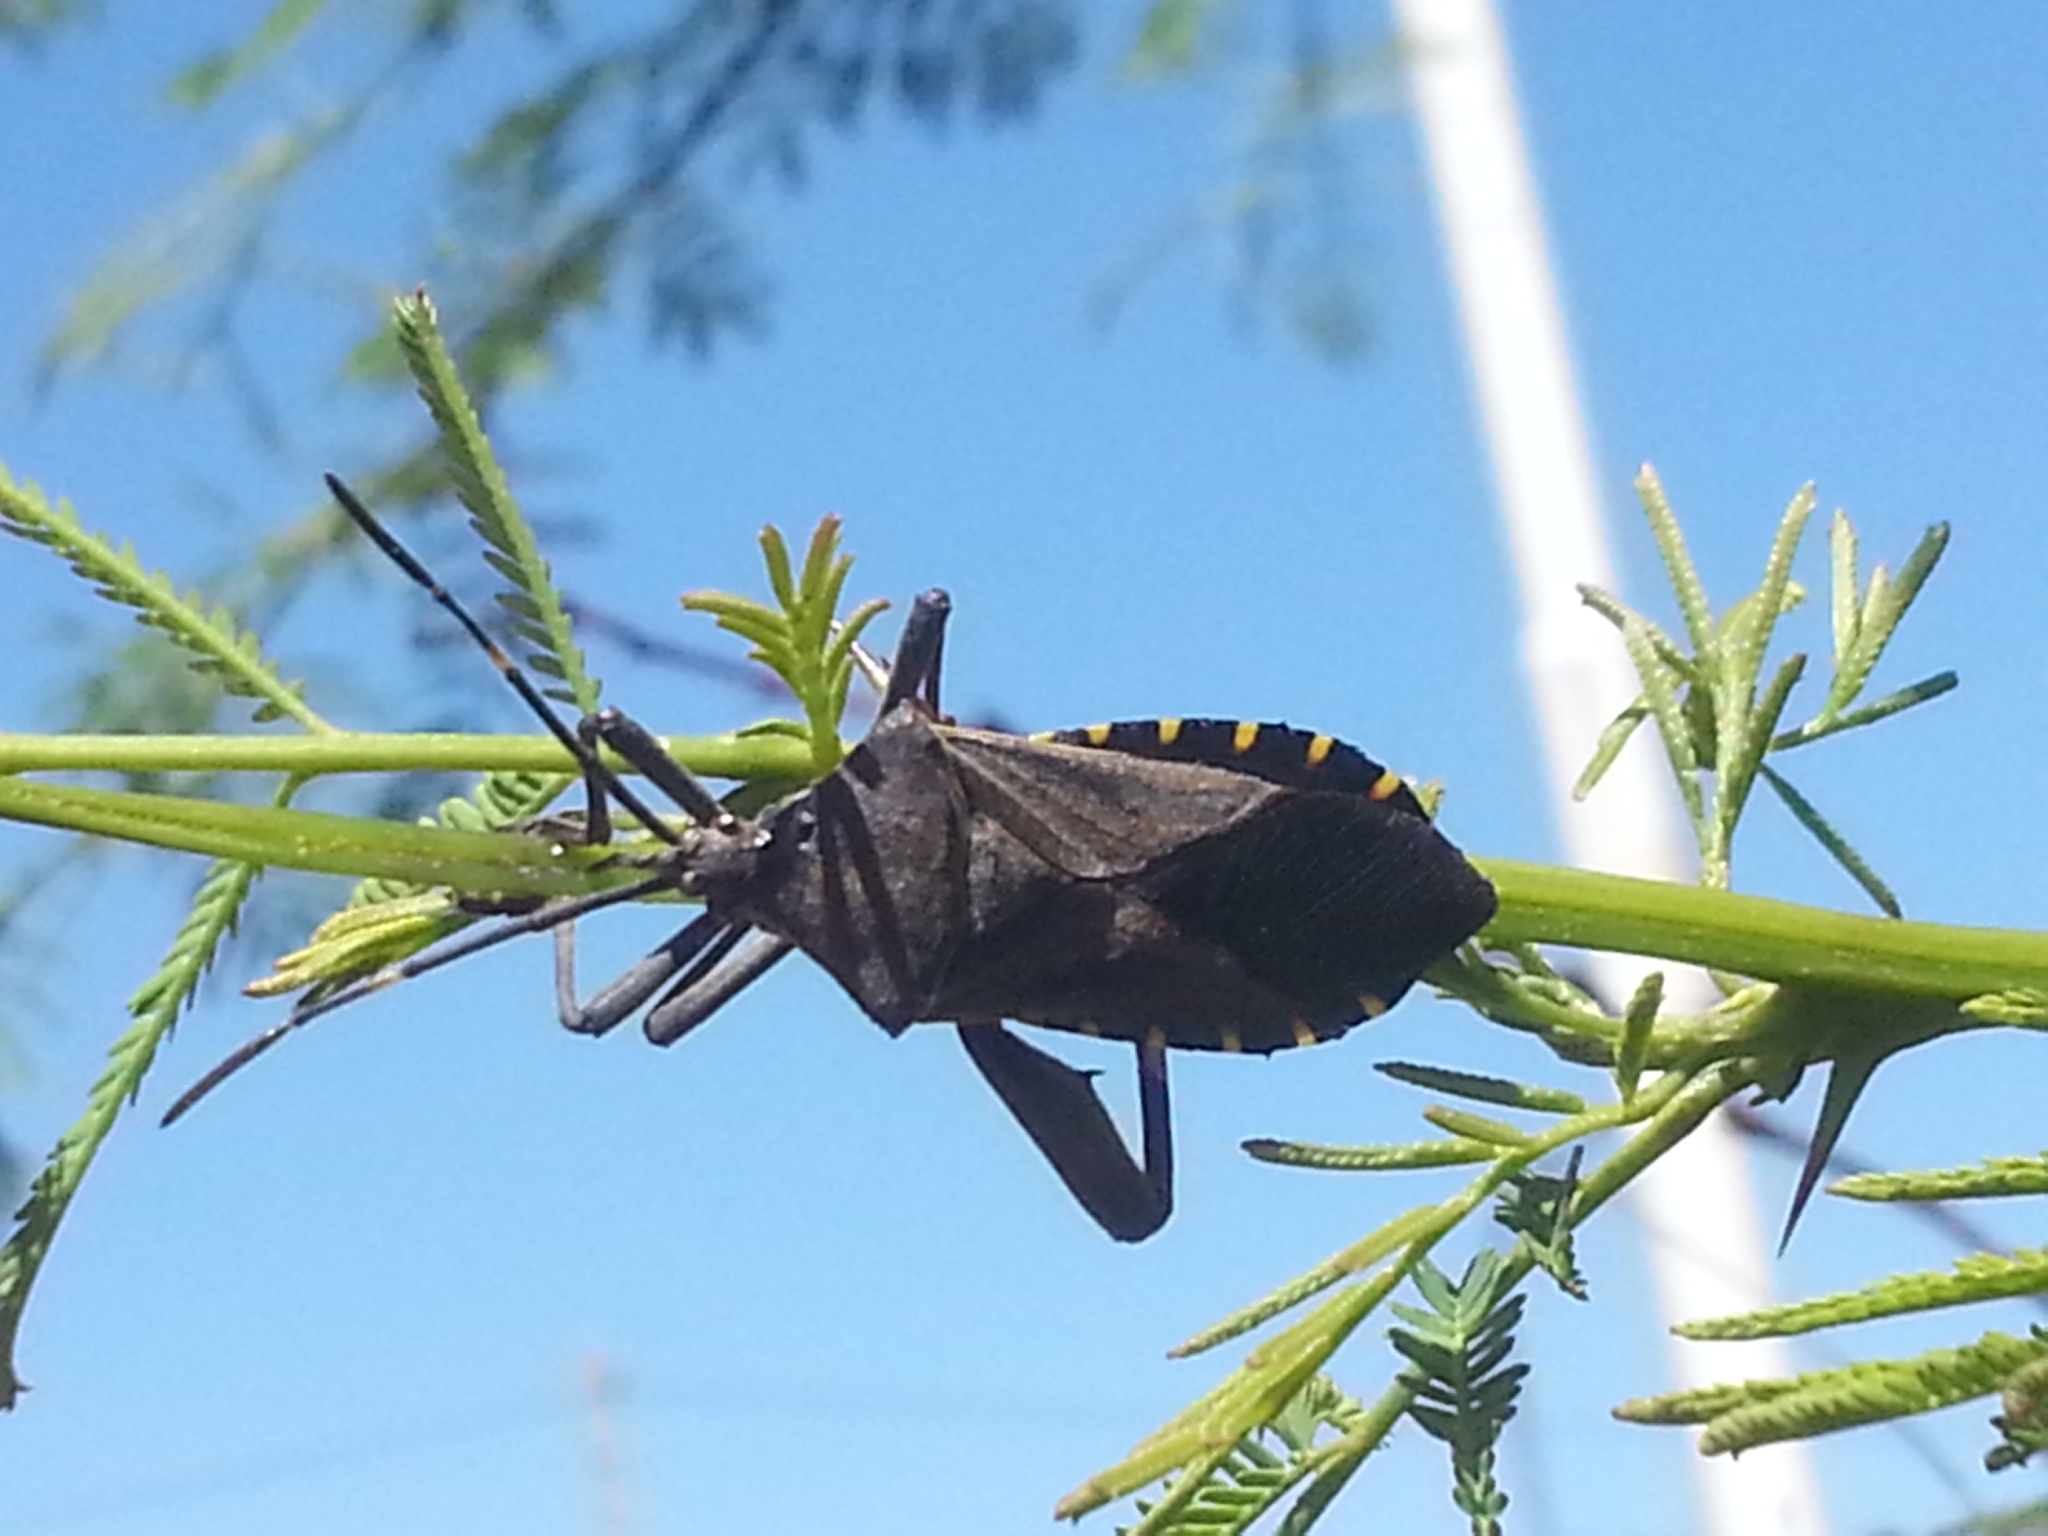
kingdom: Animalia
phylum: Arthropoda
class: Insecta
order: Hemiptera
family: Coreidae
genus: Pachylis
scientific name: Pachylis argentinus
